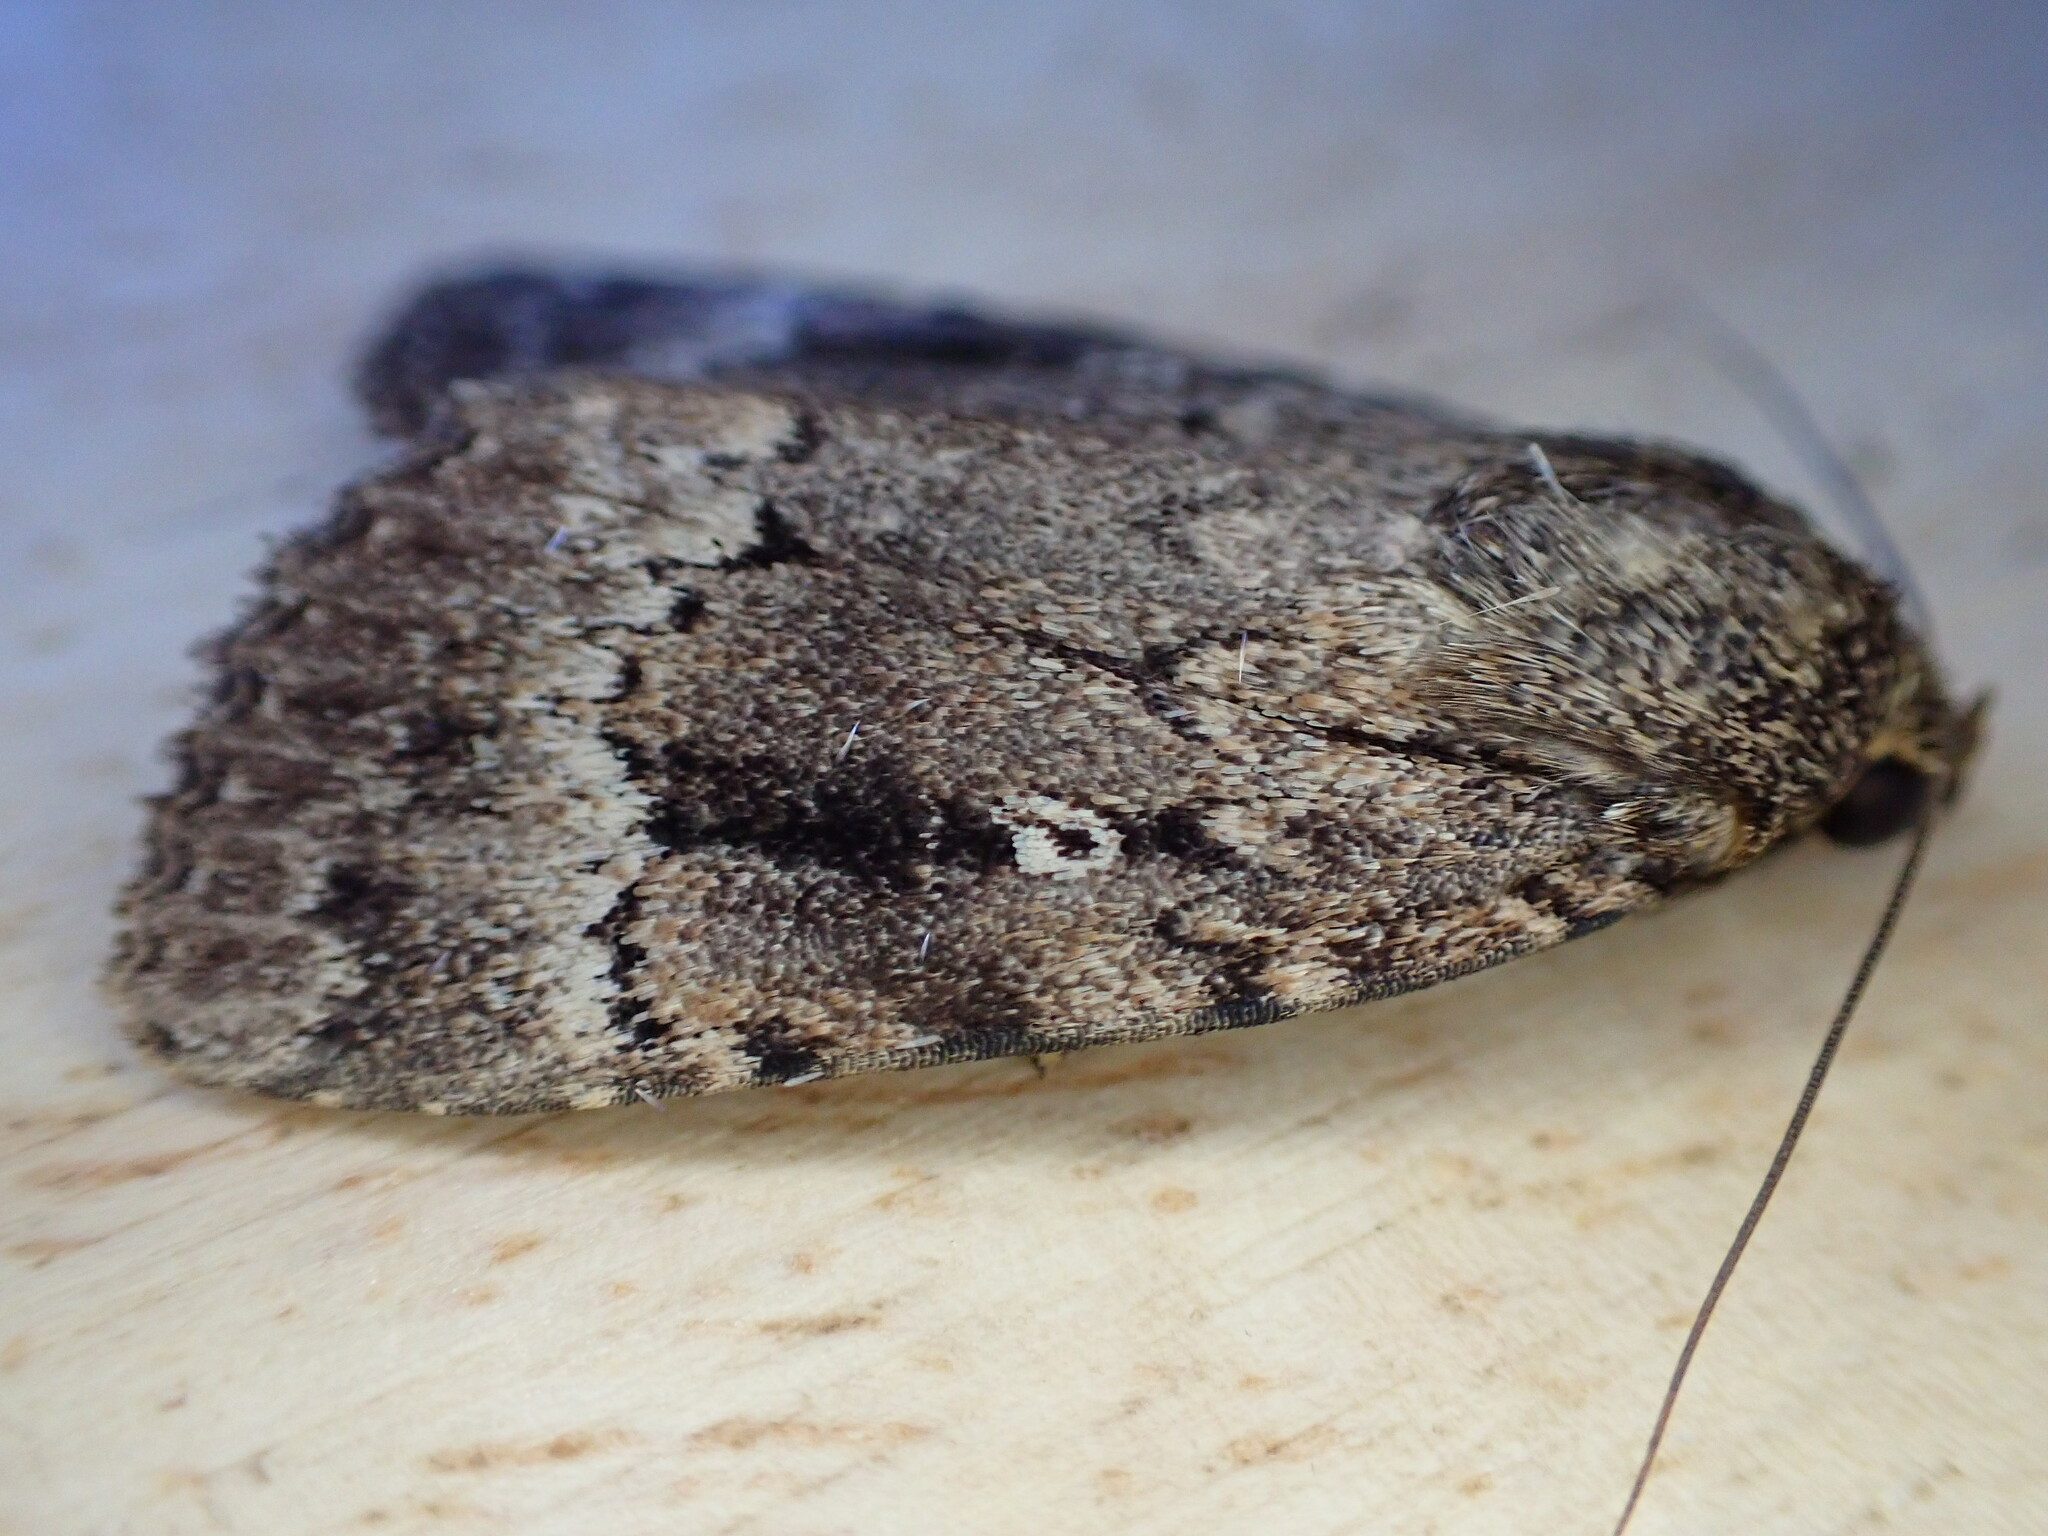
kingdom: Animalia
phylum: Arthropoda
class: Insecta
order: Lepidoptera
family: Noctuidae
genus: Amphipyra
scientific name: Amphipyra
